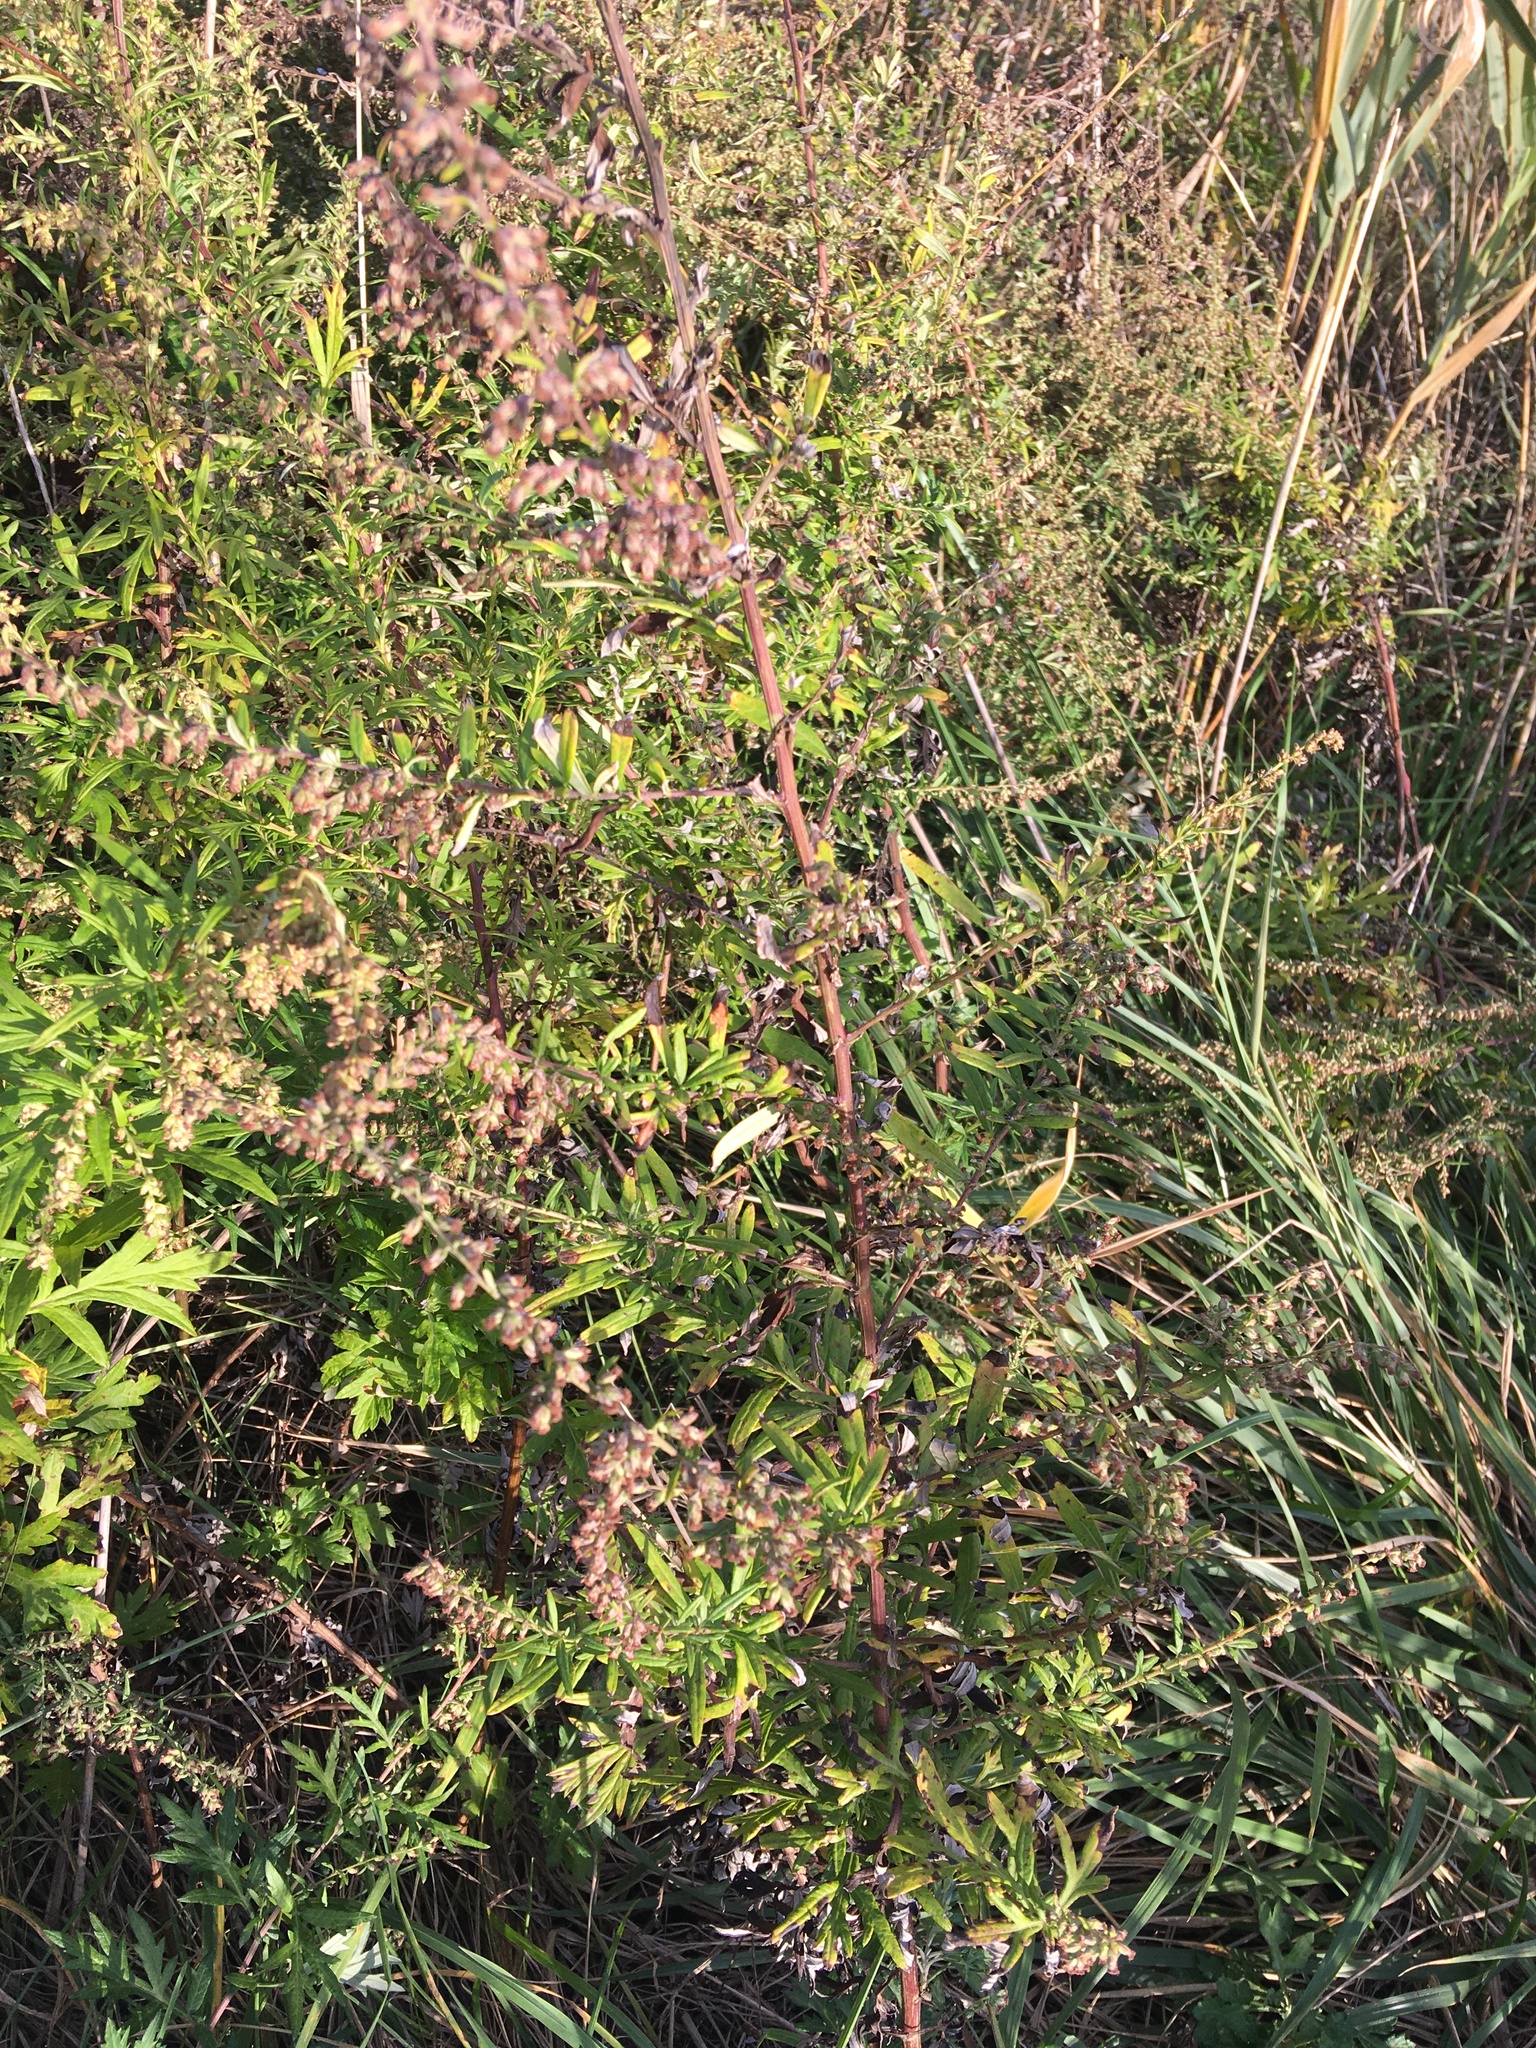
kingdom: Plantae
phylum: Tracheophyta
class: Magnoliopsida
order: Asterales
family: Asteraceae
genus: Artemisia
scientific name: Artemisia vulgaris
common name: Mugwort
